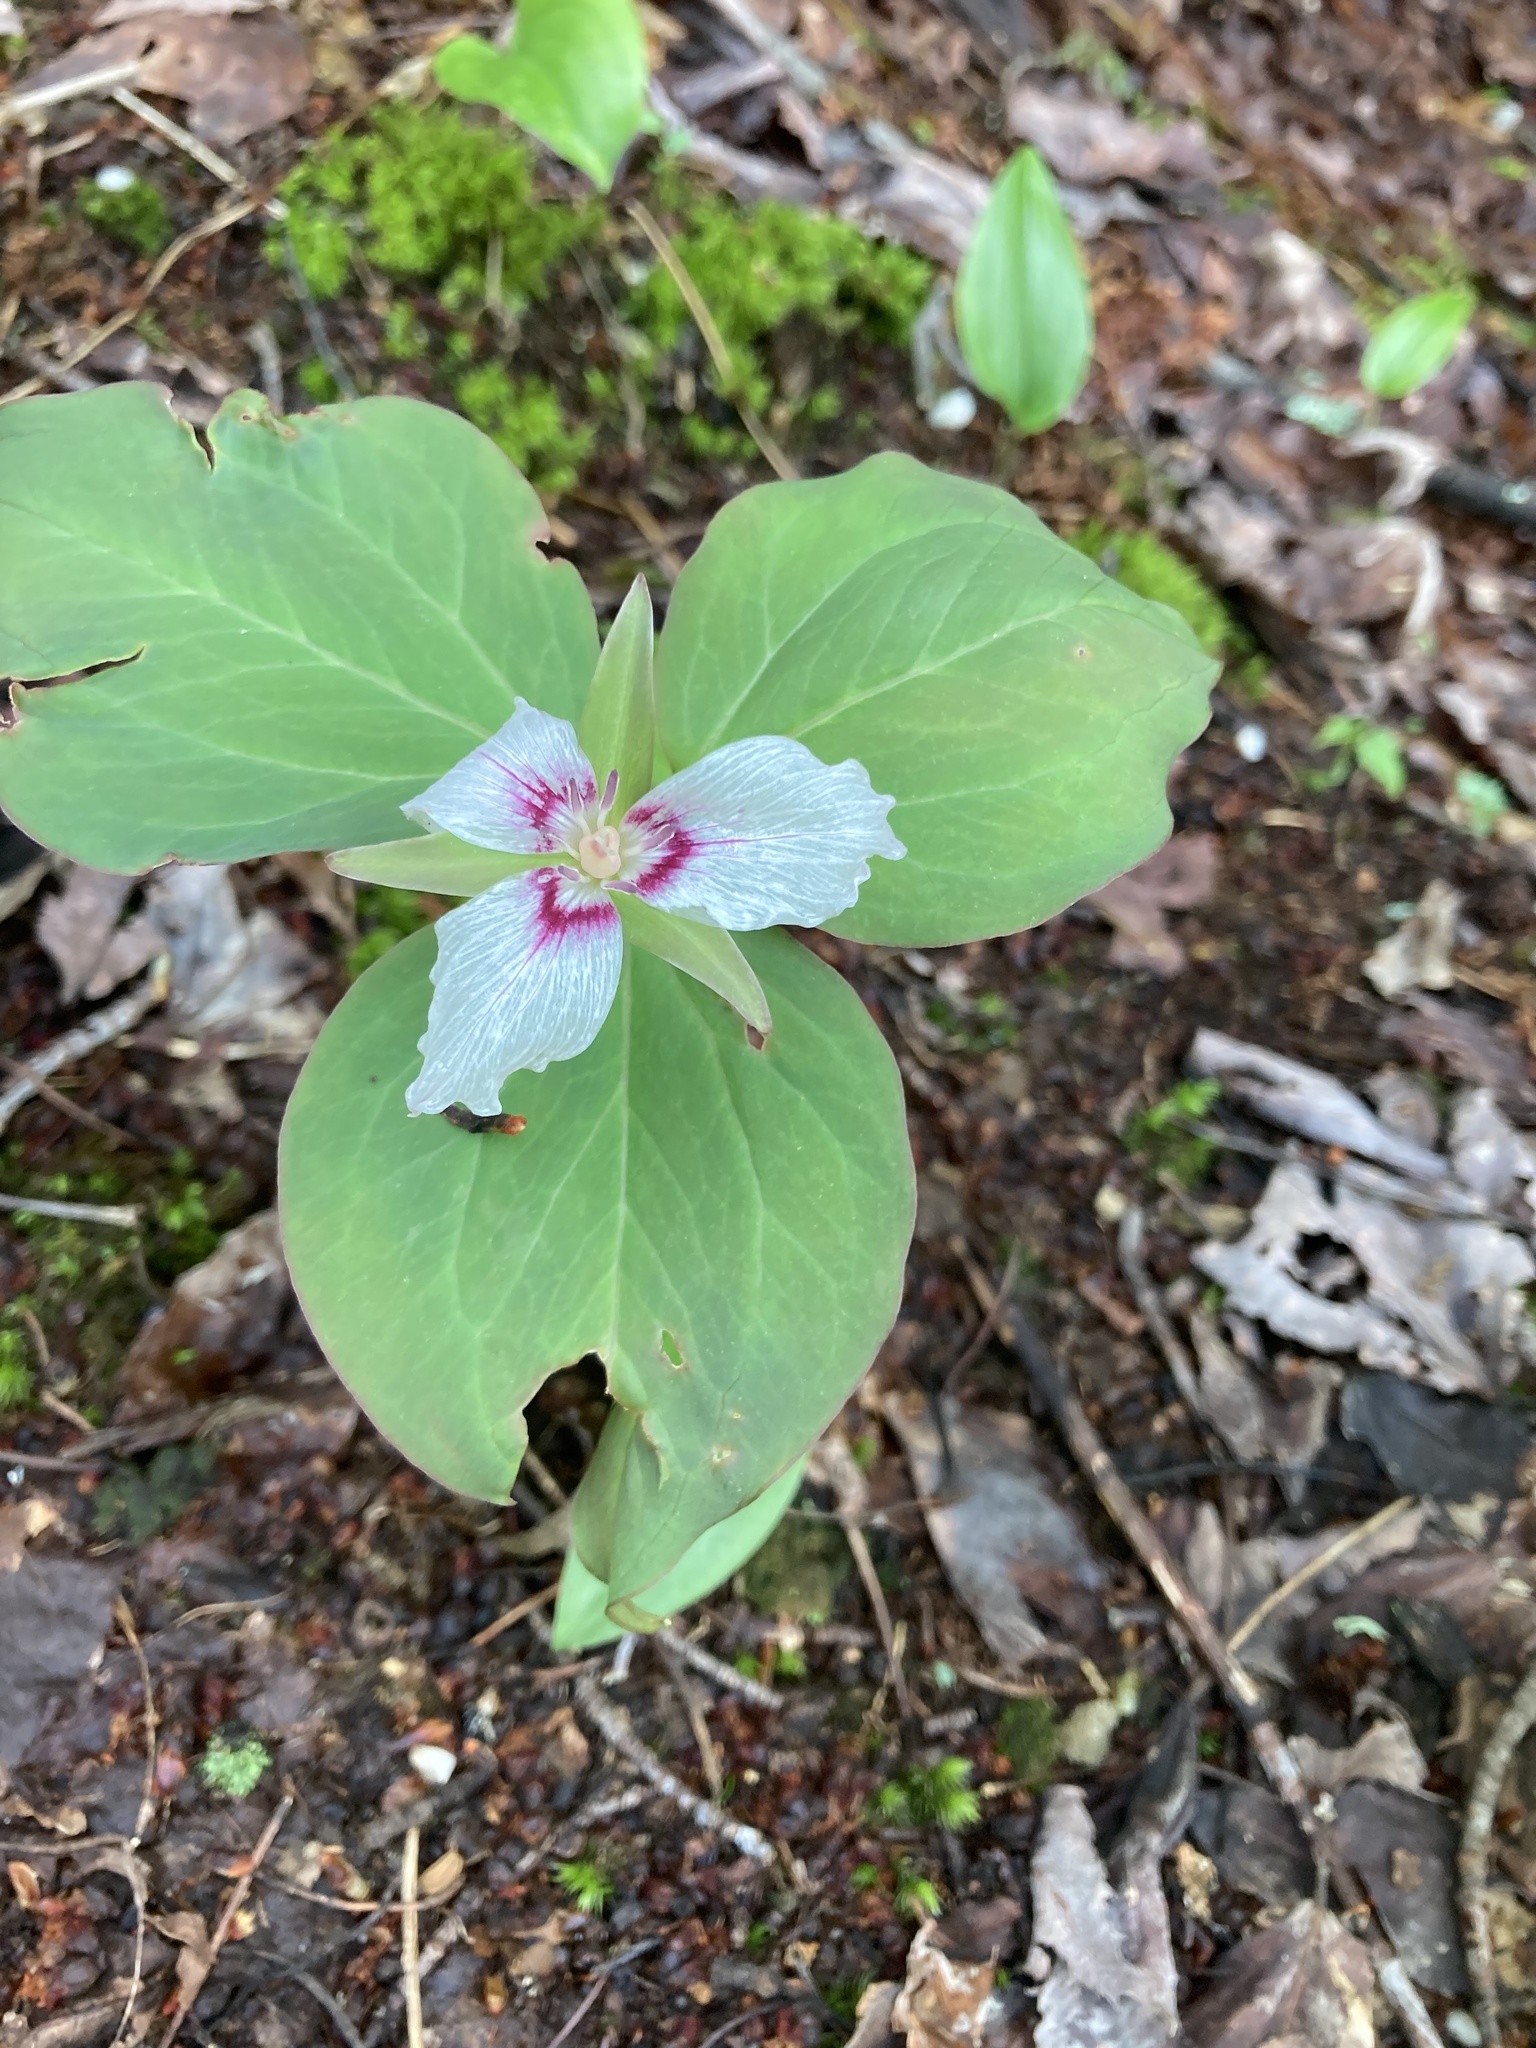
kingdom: Plantae
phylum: Tracheophyta
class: Liliopsida
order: Liliales
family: Melanthiaceae
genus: Trillium
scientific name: Trillium undulatum
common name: Paint trillium
